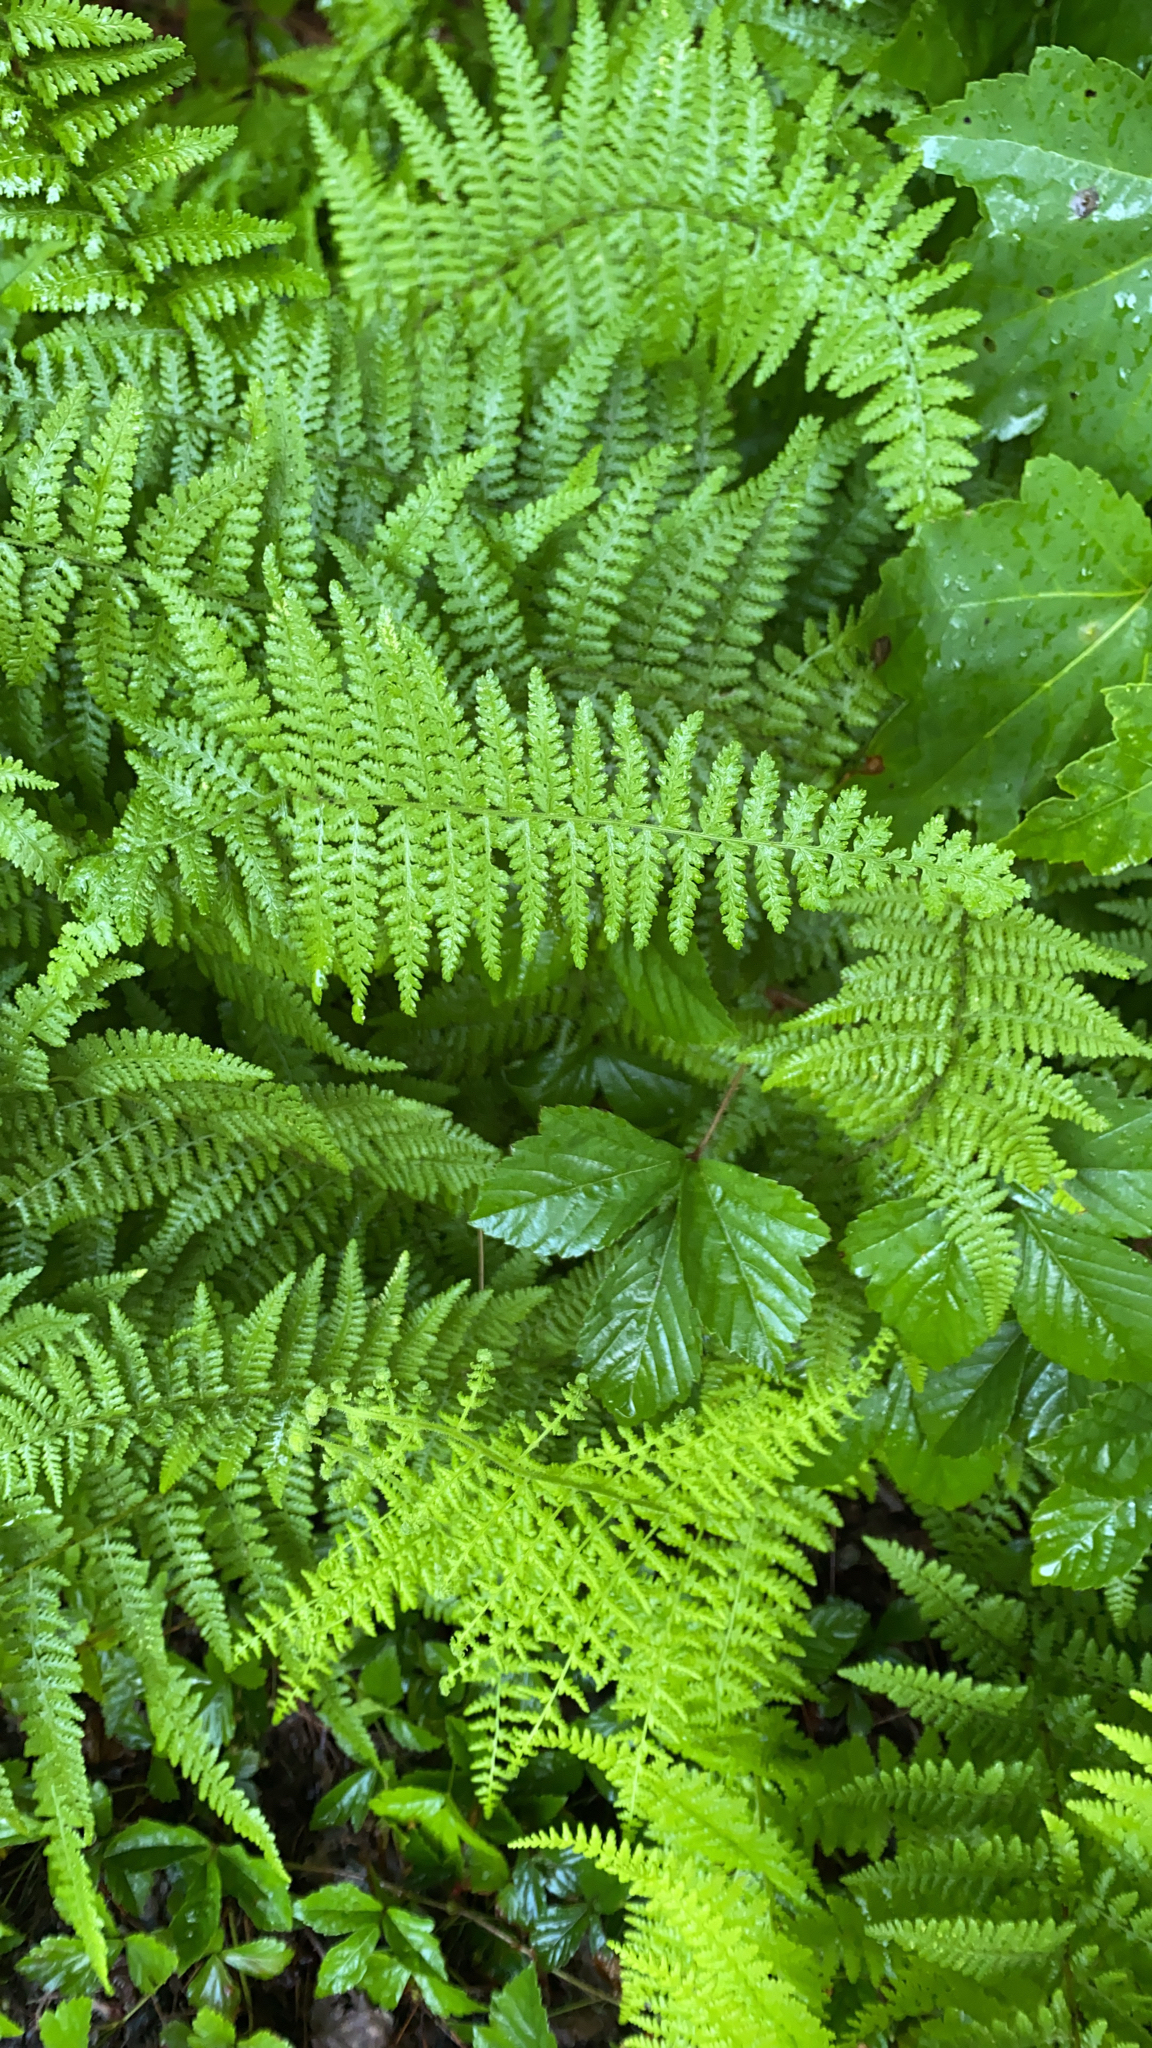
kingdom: Plantae
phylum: Tracheophyta
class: Polypodiopsida
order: Polypodiales
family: Dennstaedtiaceae
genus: Sitobolium
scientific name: Sitobolium punctilobum
